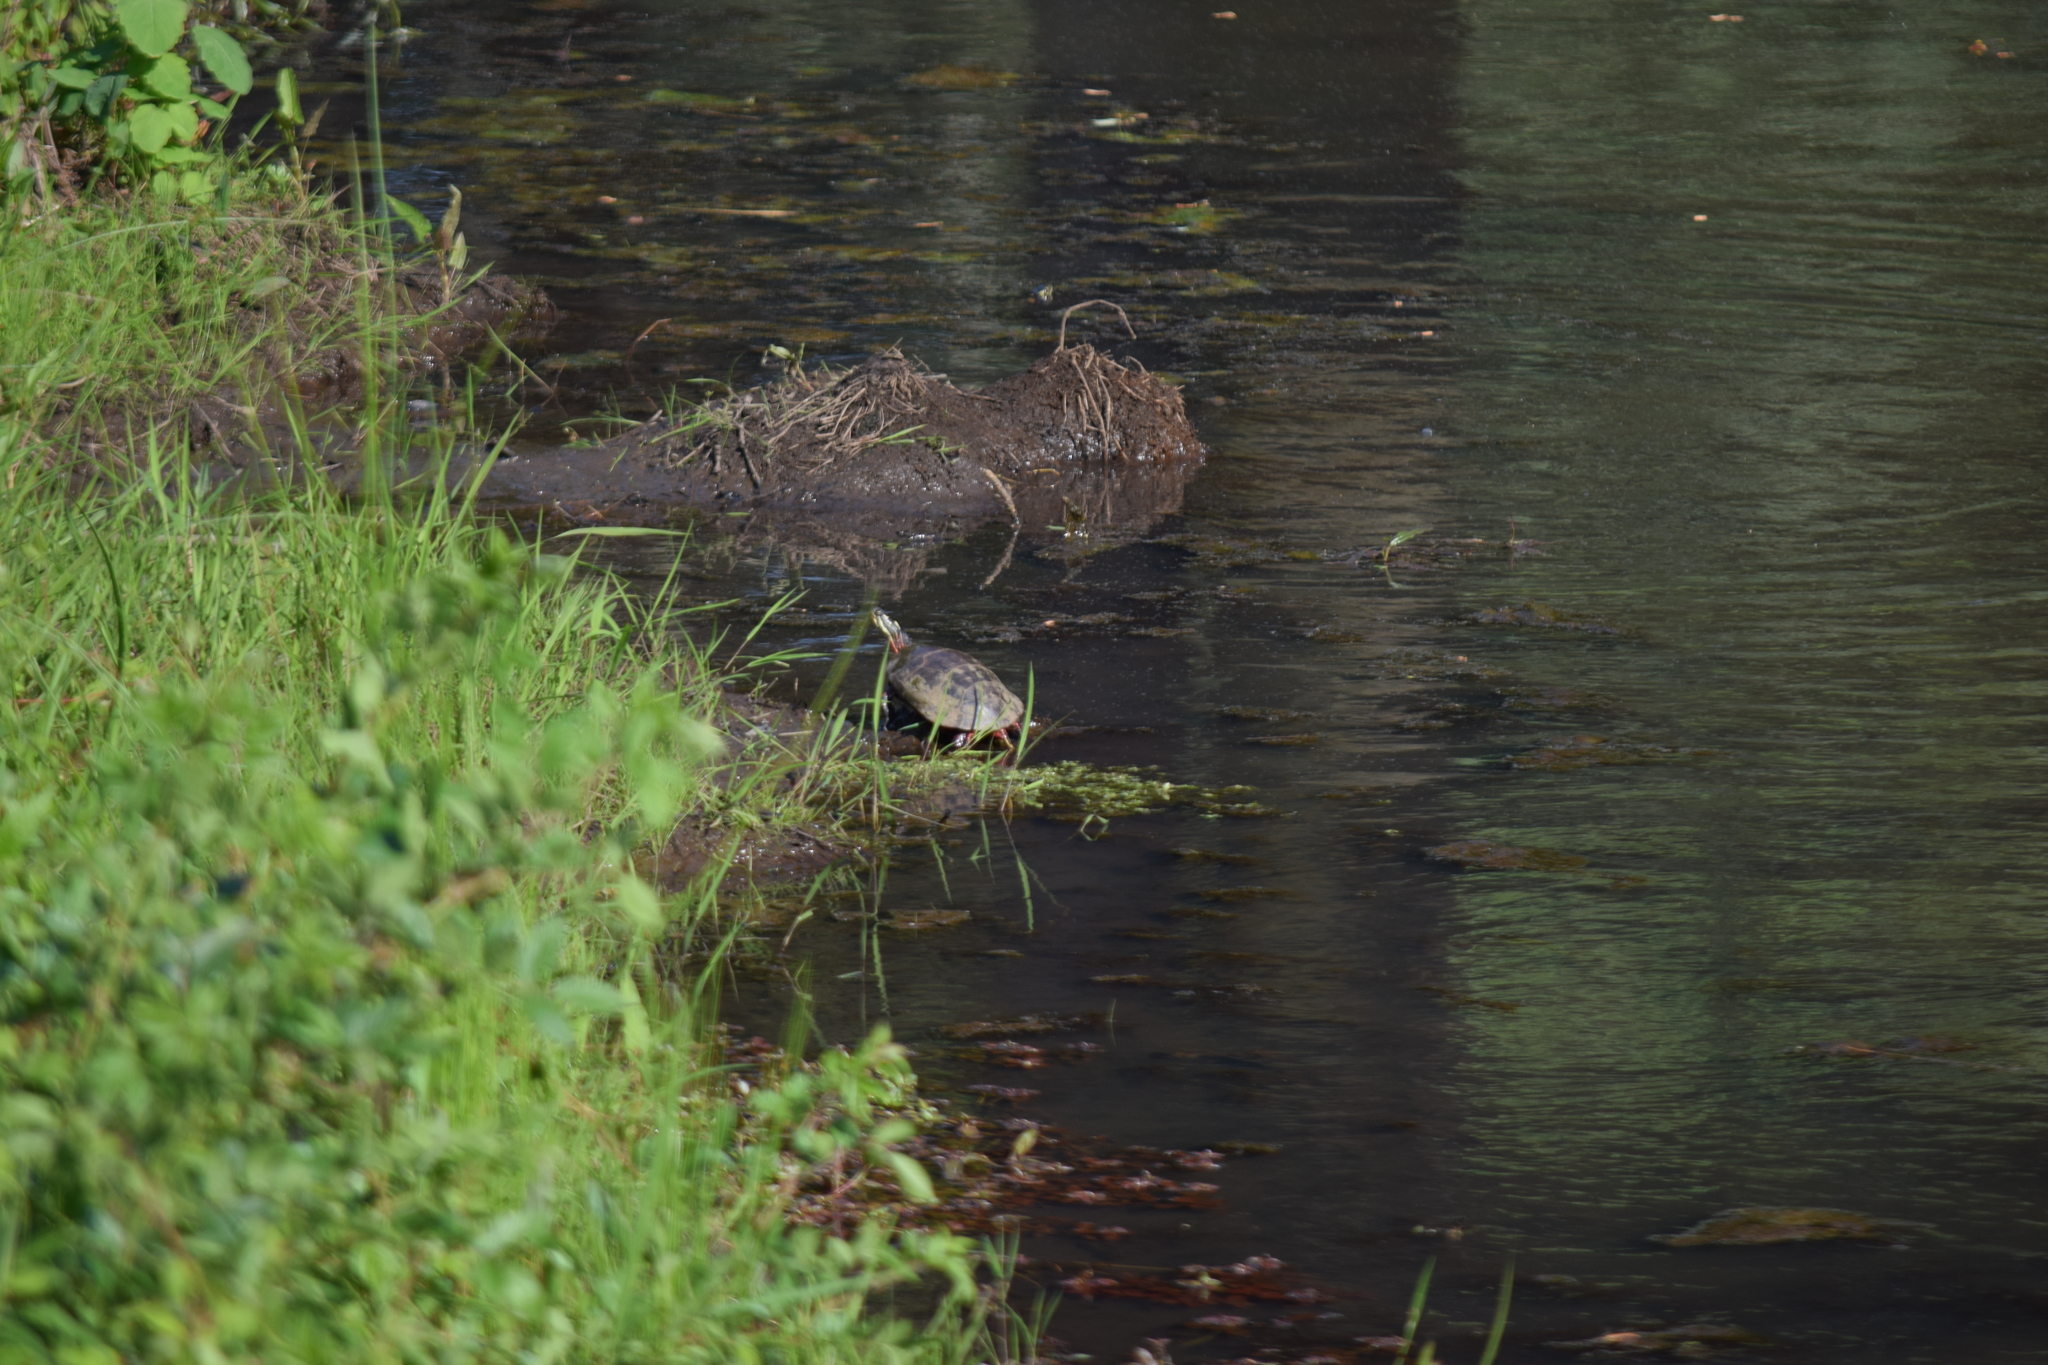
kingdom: Animalia
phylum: Chordata
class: Testudines
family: Emydidae
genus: Chrysemys
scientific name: Chrysemys picta
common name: Painted turtle
